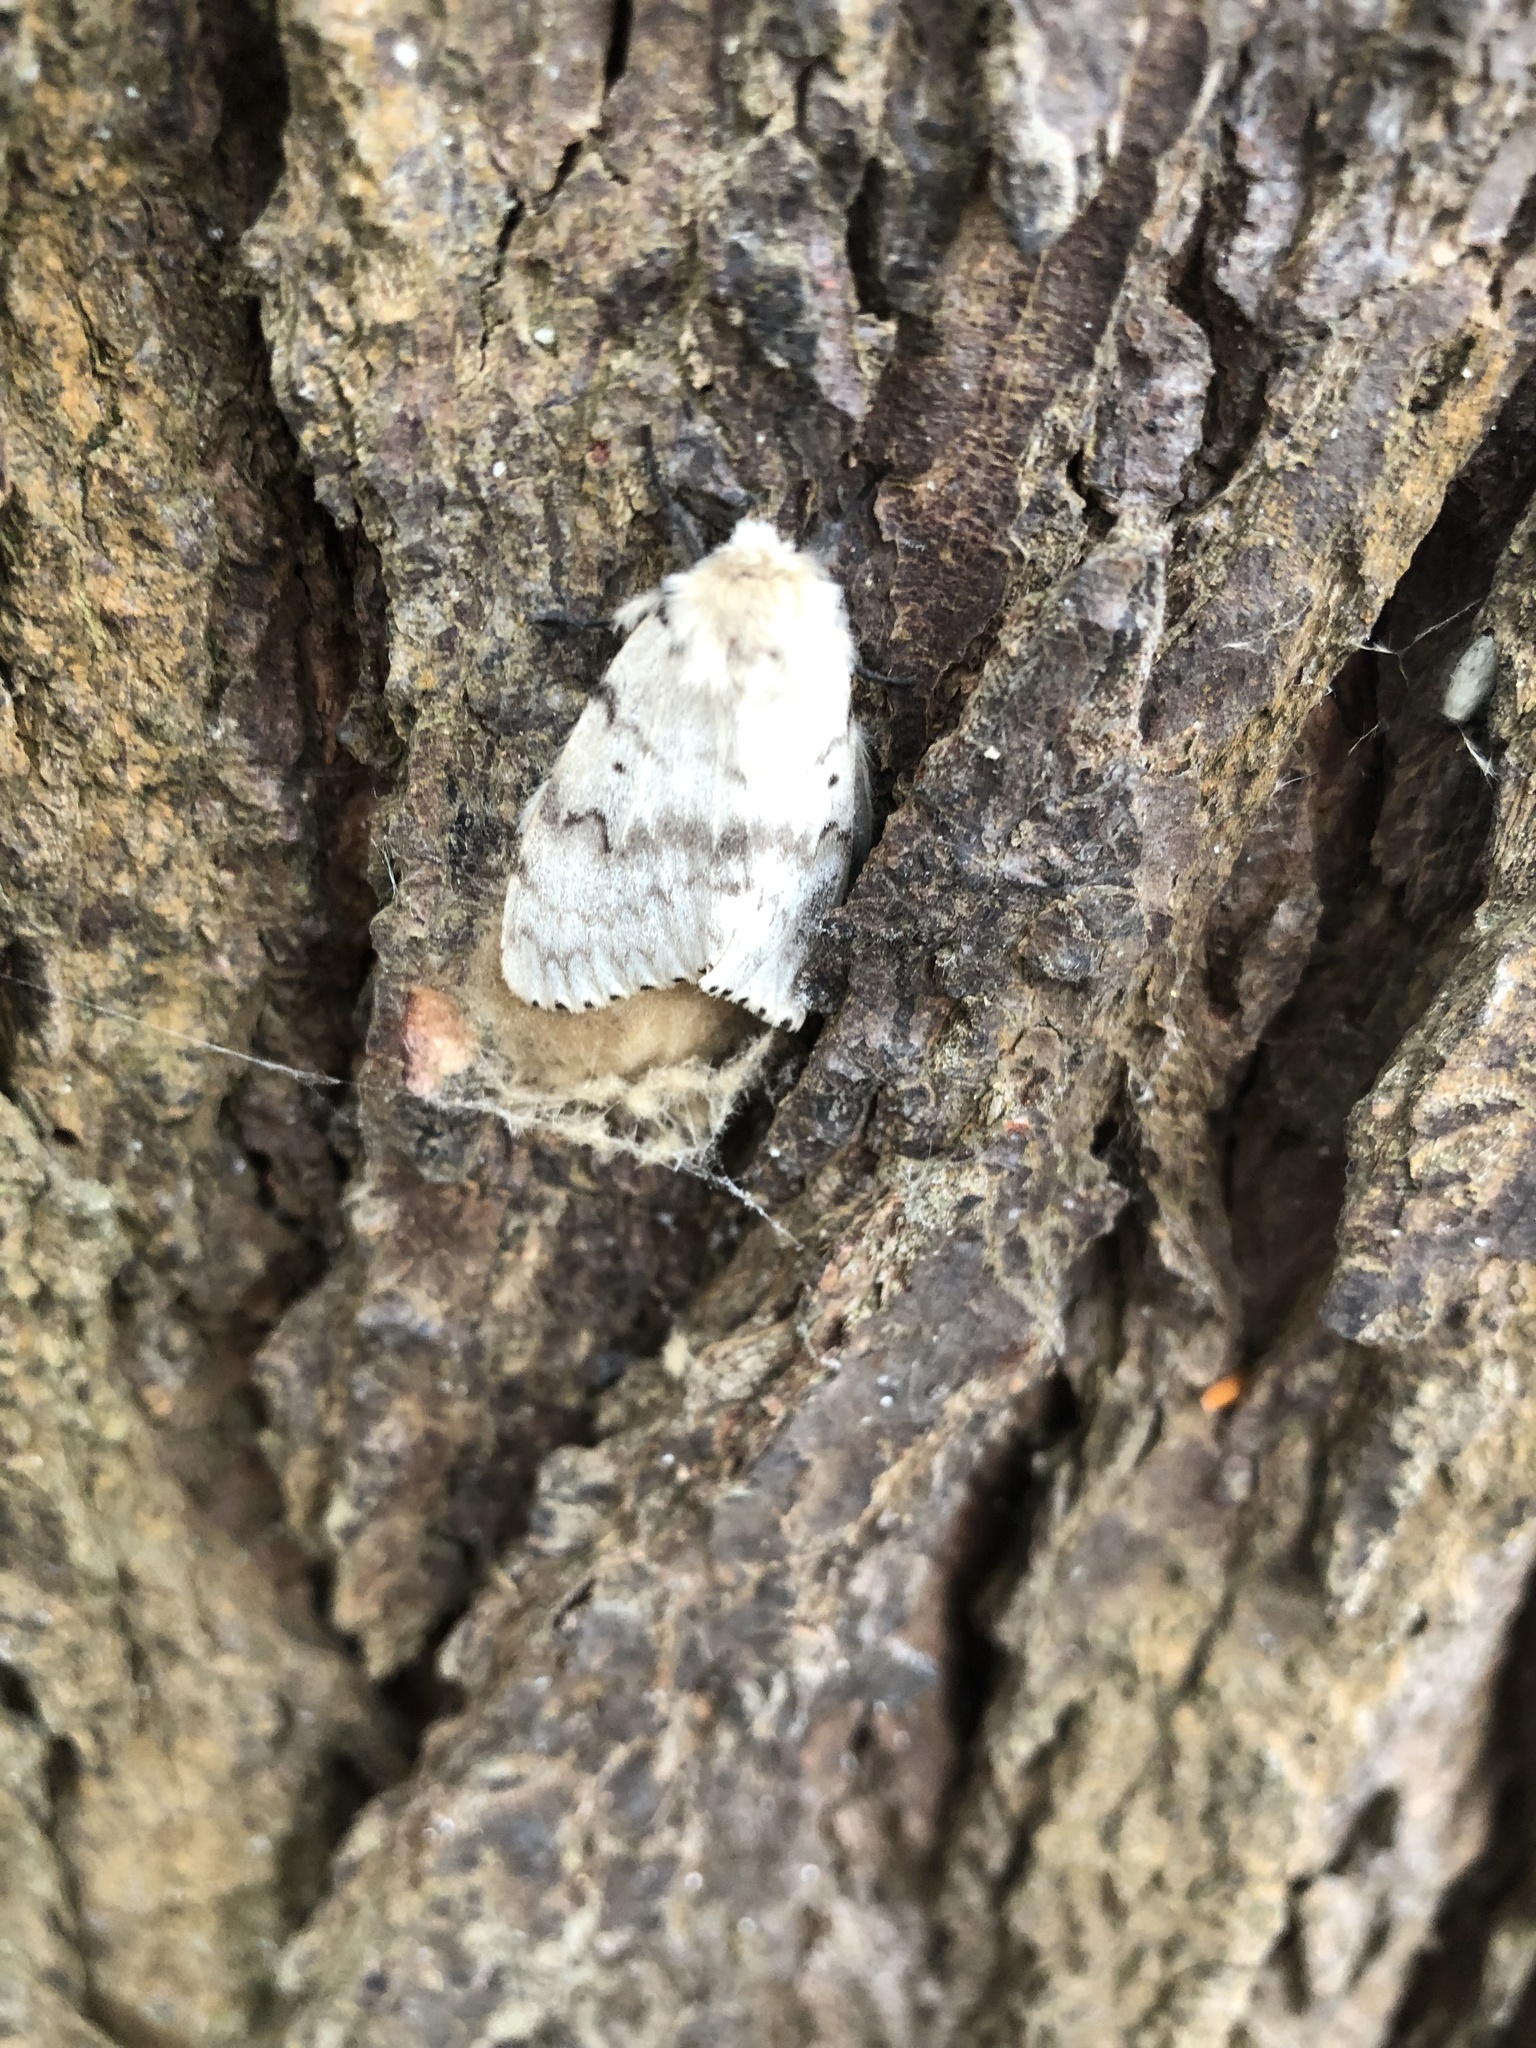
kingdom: Animalia
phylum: Arthropoda
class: Insecta
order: Lepidoptera
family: Erebidae
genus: Lymantria
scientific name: Lymantria dispar
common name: Gypsy moth
